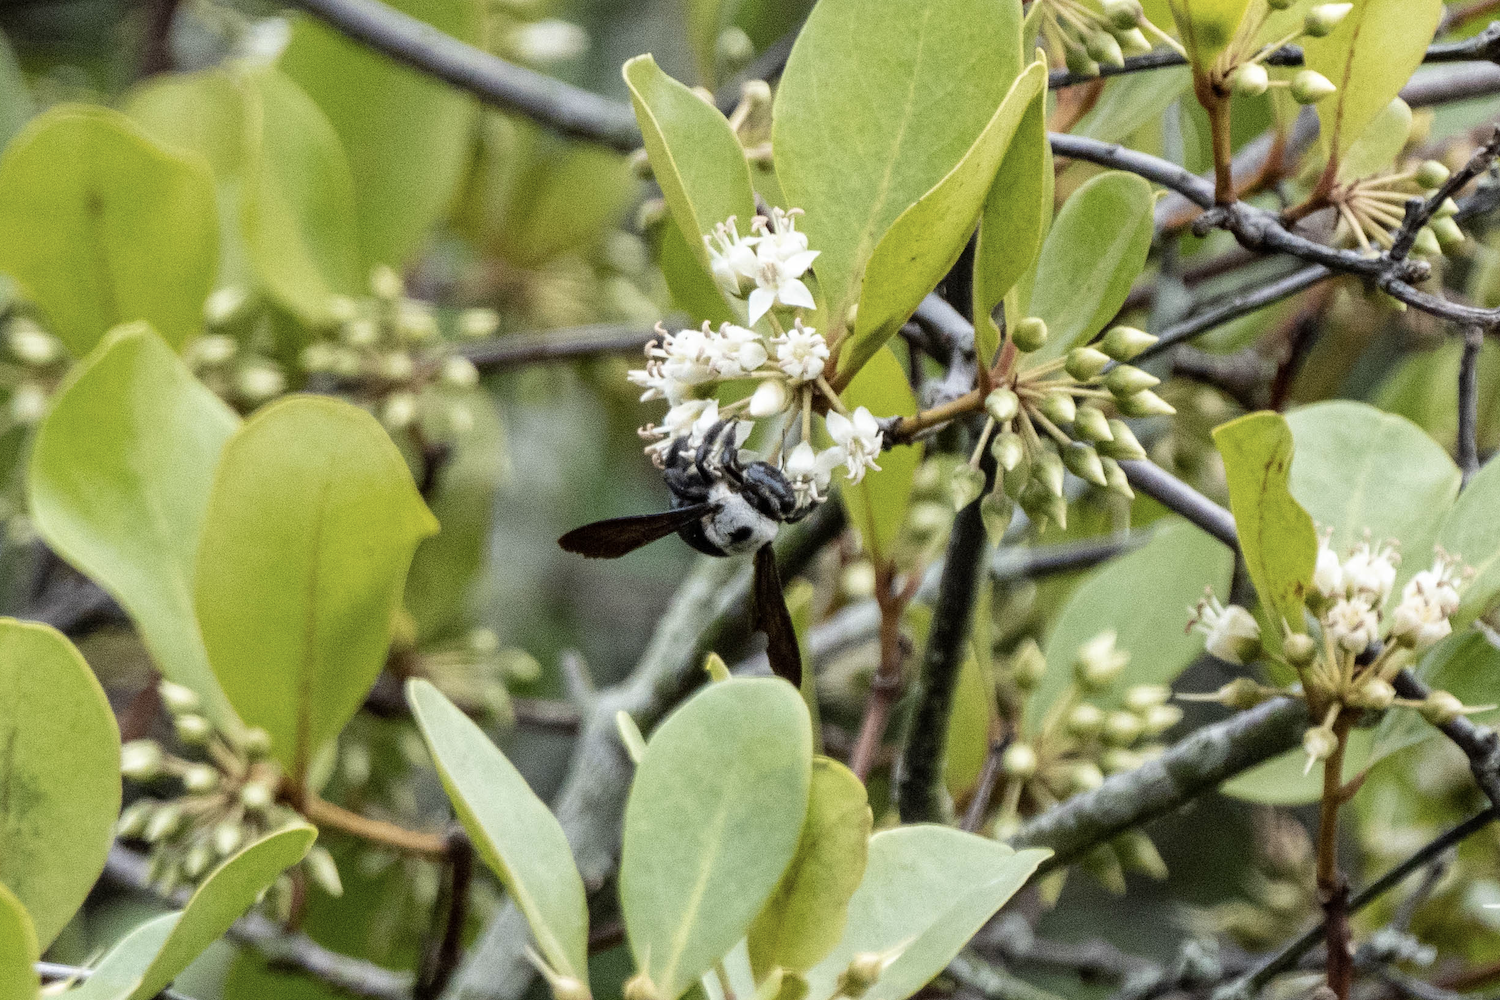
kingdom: Animalia
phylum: Arthropoda
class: Insecta
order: Hymenoptera
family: Apidae
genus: Xylocopa
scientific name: Xylocopa phalothorax
